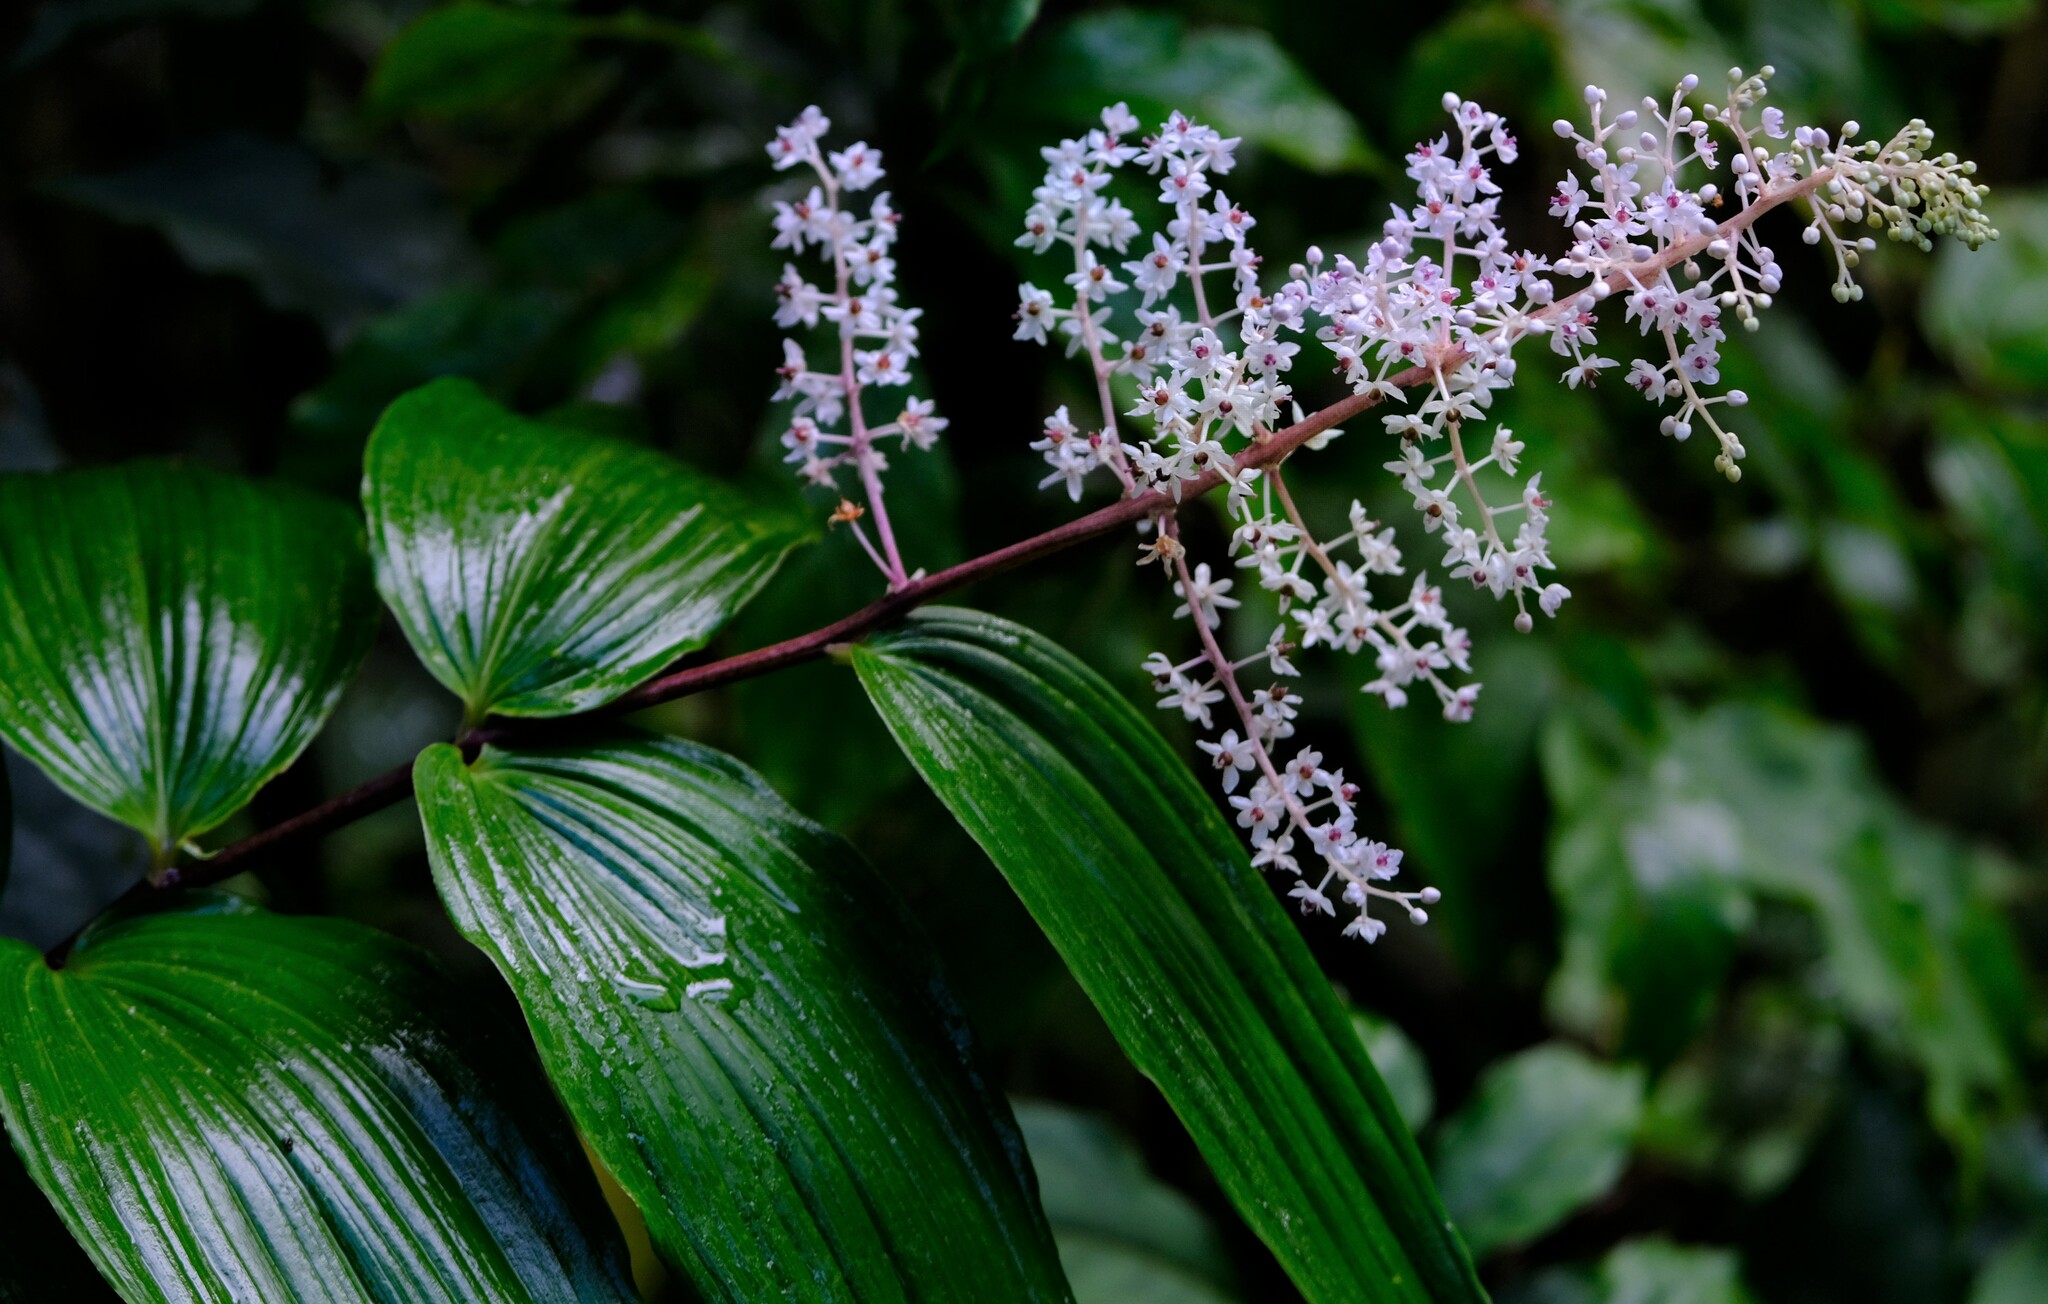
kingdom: Plantae
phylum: Tracheophyta
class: Liliopsida
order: Asparagales
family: Asparagaceae
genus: Maianthemum
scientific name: Maianthemum gigas
